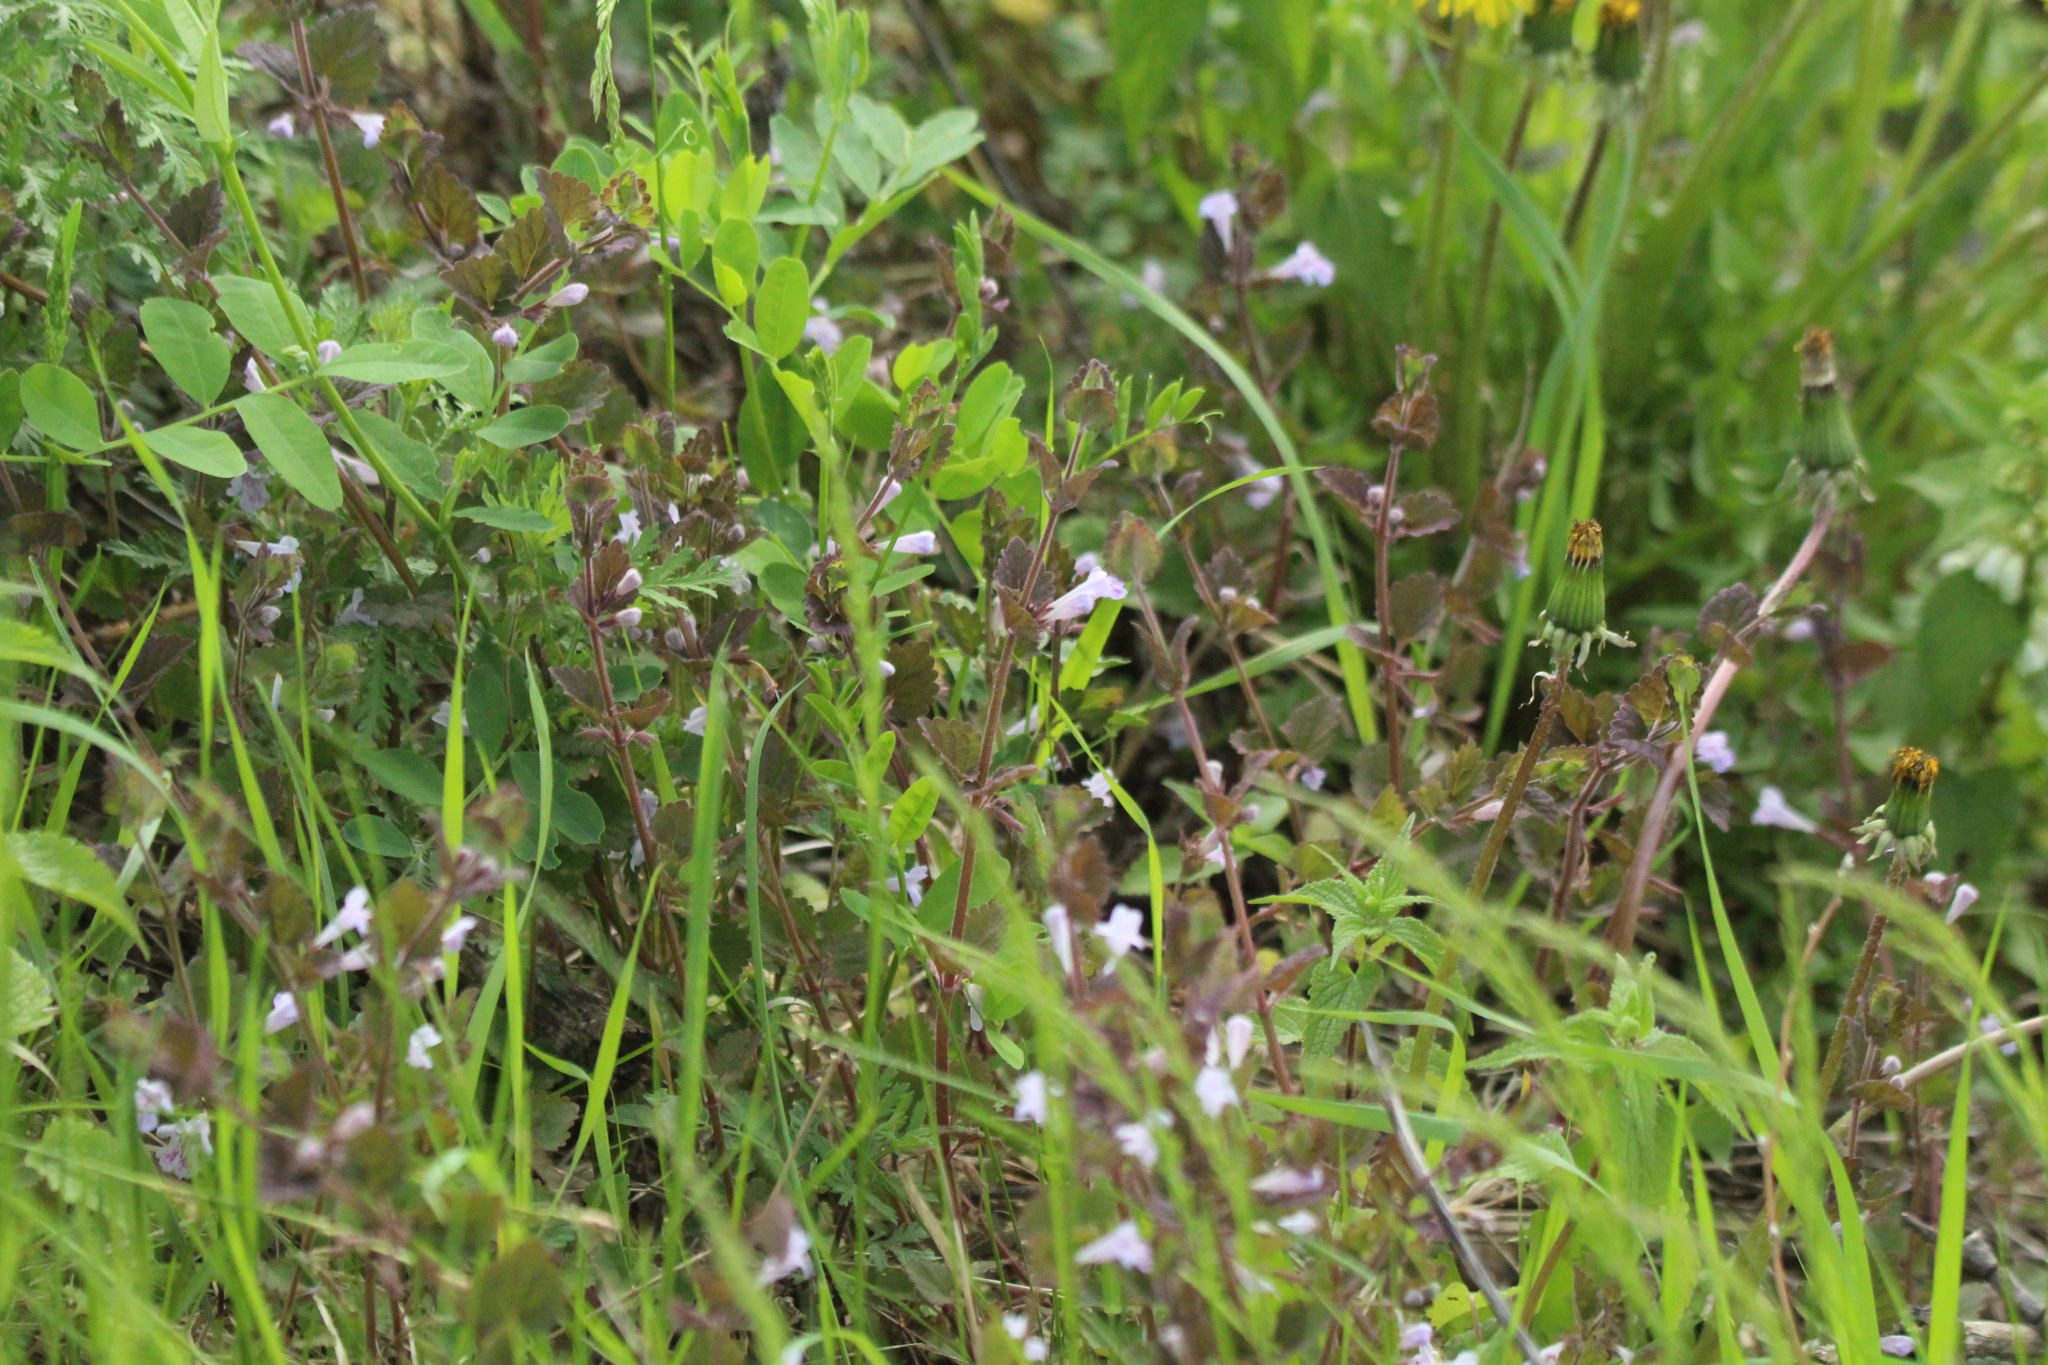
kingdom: Plantae
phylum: Tracheophyta
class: Magnoliopsida
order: Lamiales
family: Lamiaceae
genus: Glechoma
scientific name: Glechoma longituba
